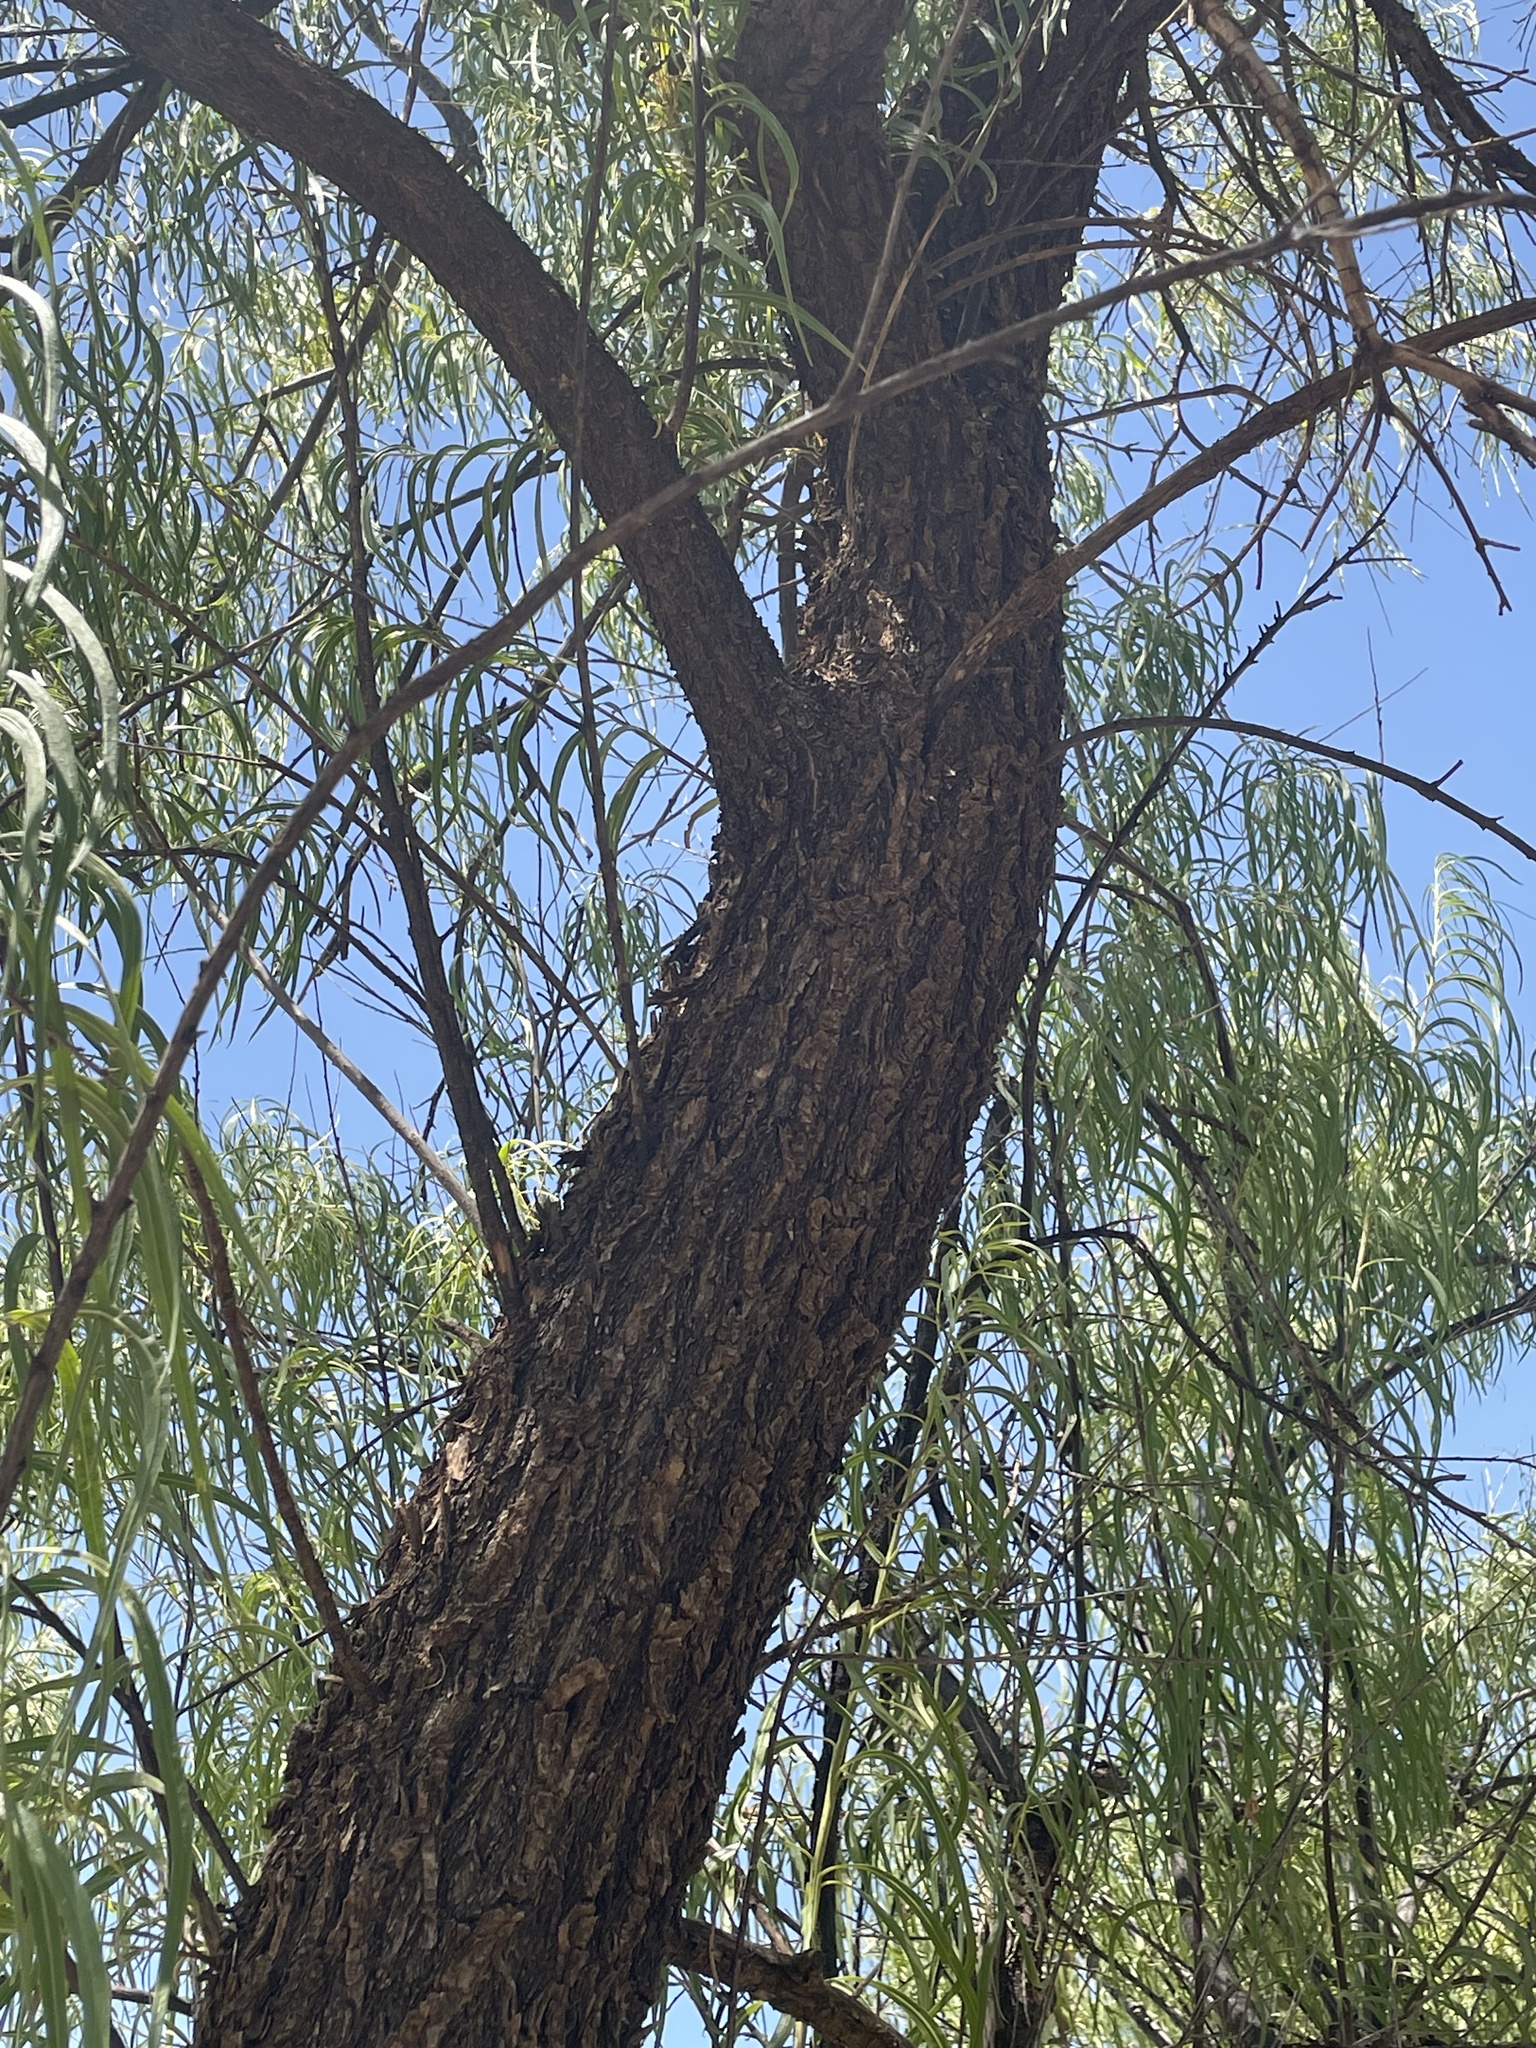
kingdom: Plantae
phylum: Tracheophyta
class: Magnoliopsida
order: Lamiales
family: Bignoniaceae
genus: Chilopsis
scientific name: Chilopsis linearis
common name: Desert-willow
